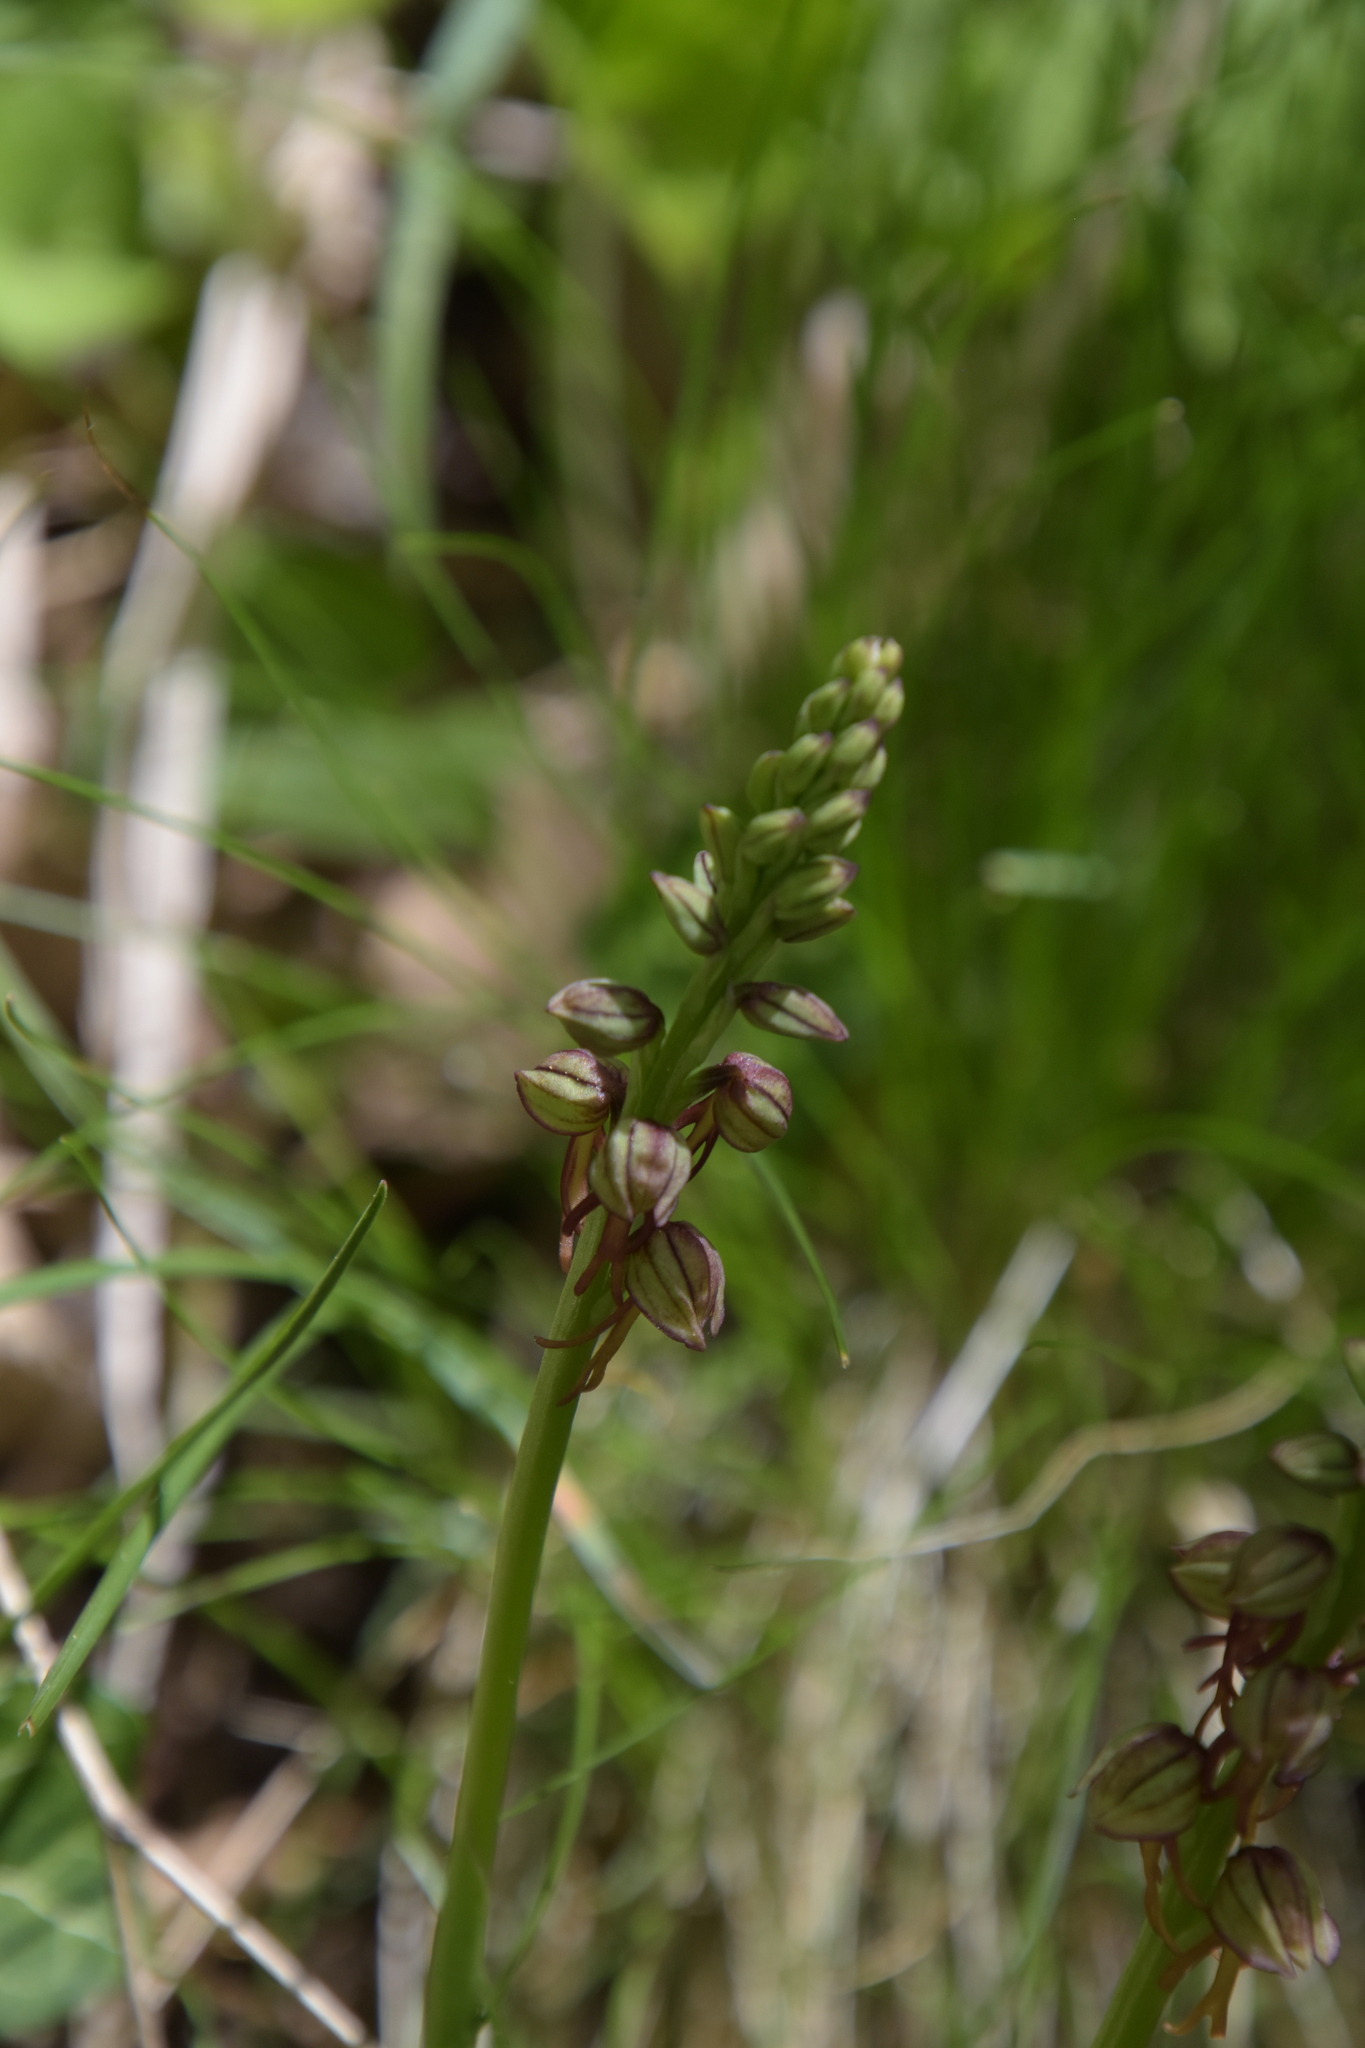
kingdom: Plantae
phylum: Tracheophyta
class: Liliopsida
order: Asparagales
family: Orchidaceae
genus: Orchis
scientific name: Orchis anthropophora
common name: Man orchid
